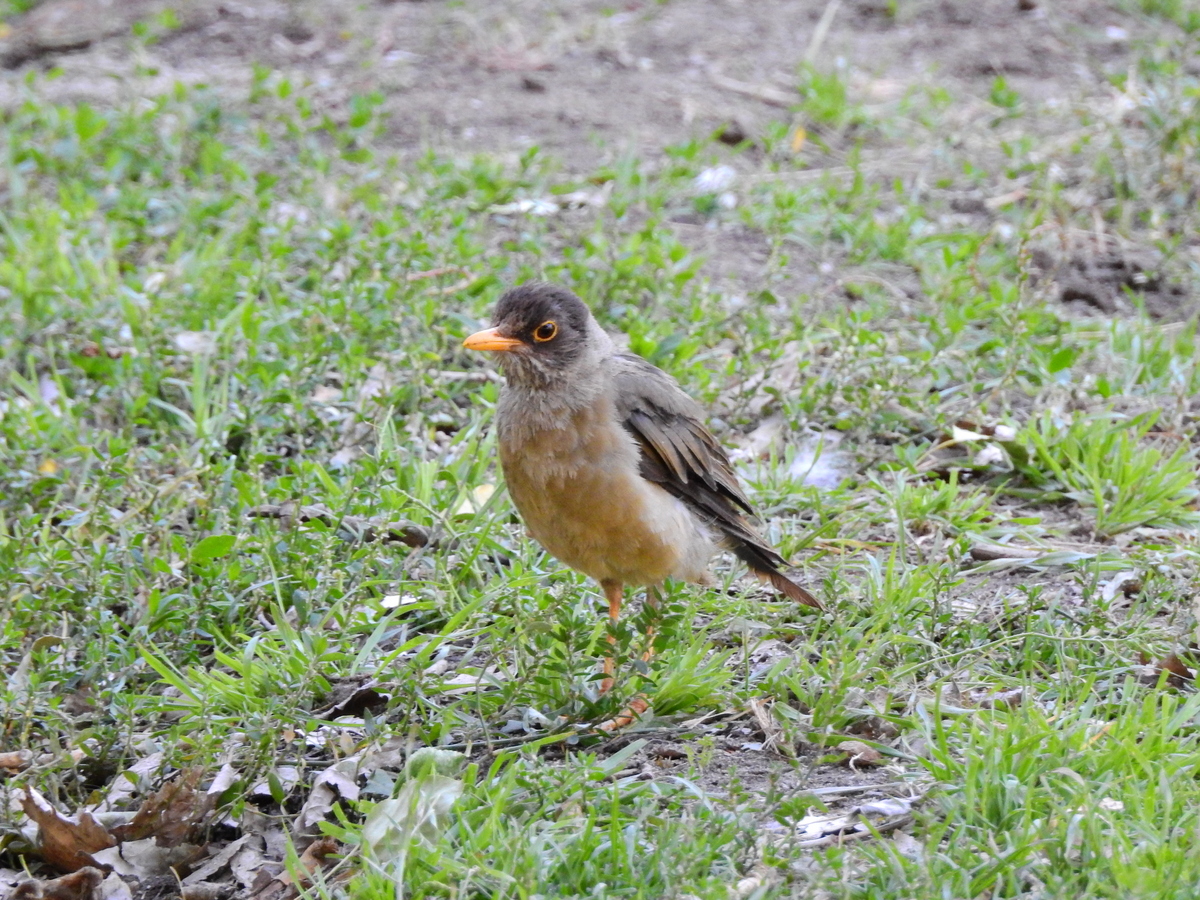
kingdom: Animalia
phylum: Chordata
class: Aves
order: Passeriformes
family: Turdidae
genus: Turdus
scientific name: Turdus falcklandii
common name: Austral thrush
